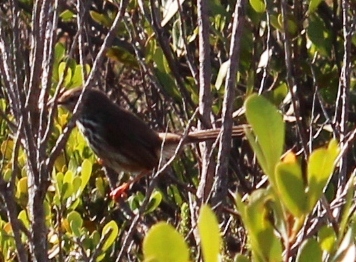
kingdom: Animalia
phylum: Chordata
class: Aves
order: Passeriformes
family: Cisticolidae
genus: Prinia
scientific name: Prinia maculosa
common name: Karoo prinia
